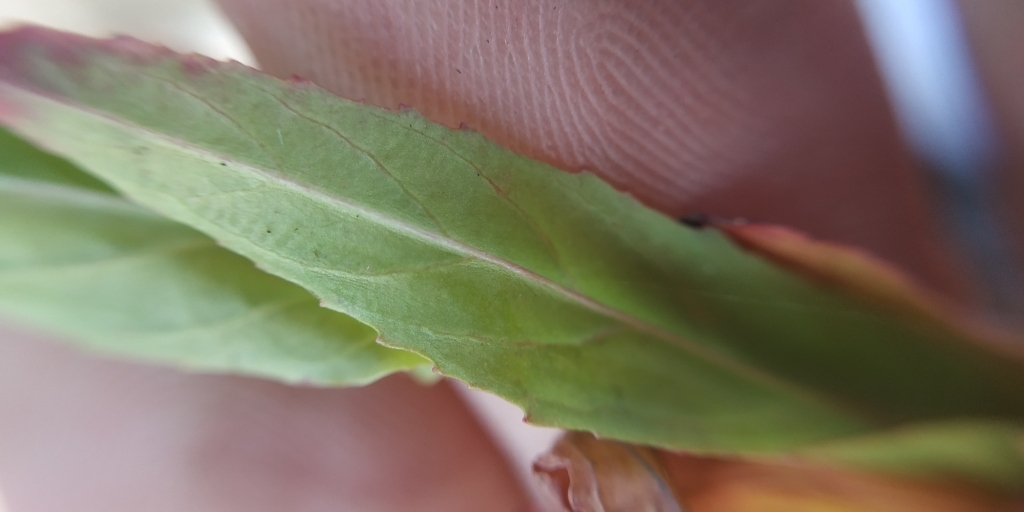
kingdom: Plantae
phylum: Tracheophyta
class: Magnoliopsida
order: Myrtales
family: Onagraceae
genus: Epilobium
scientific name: Epilobium tetragonum
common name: Square-stemmed willowherb
